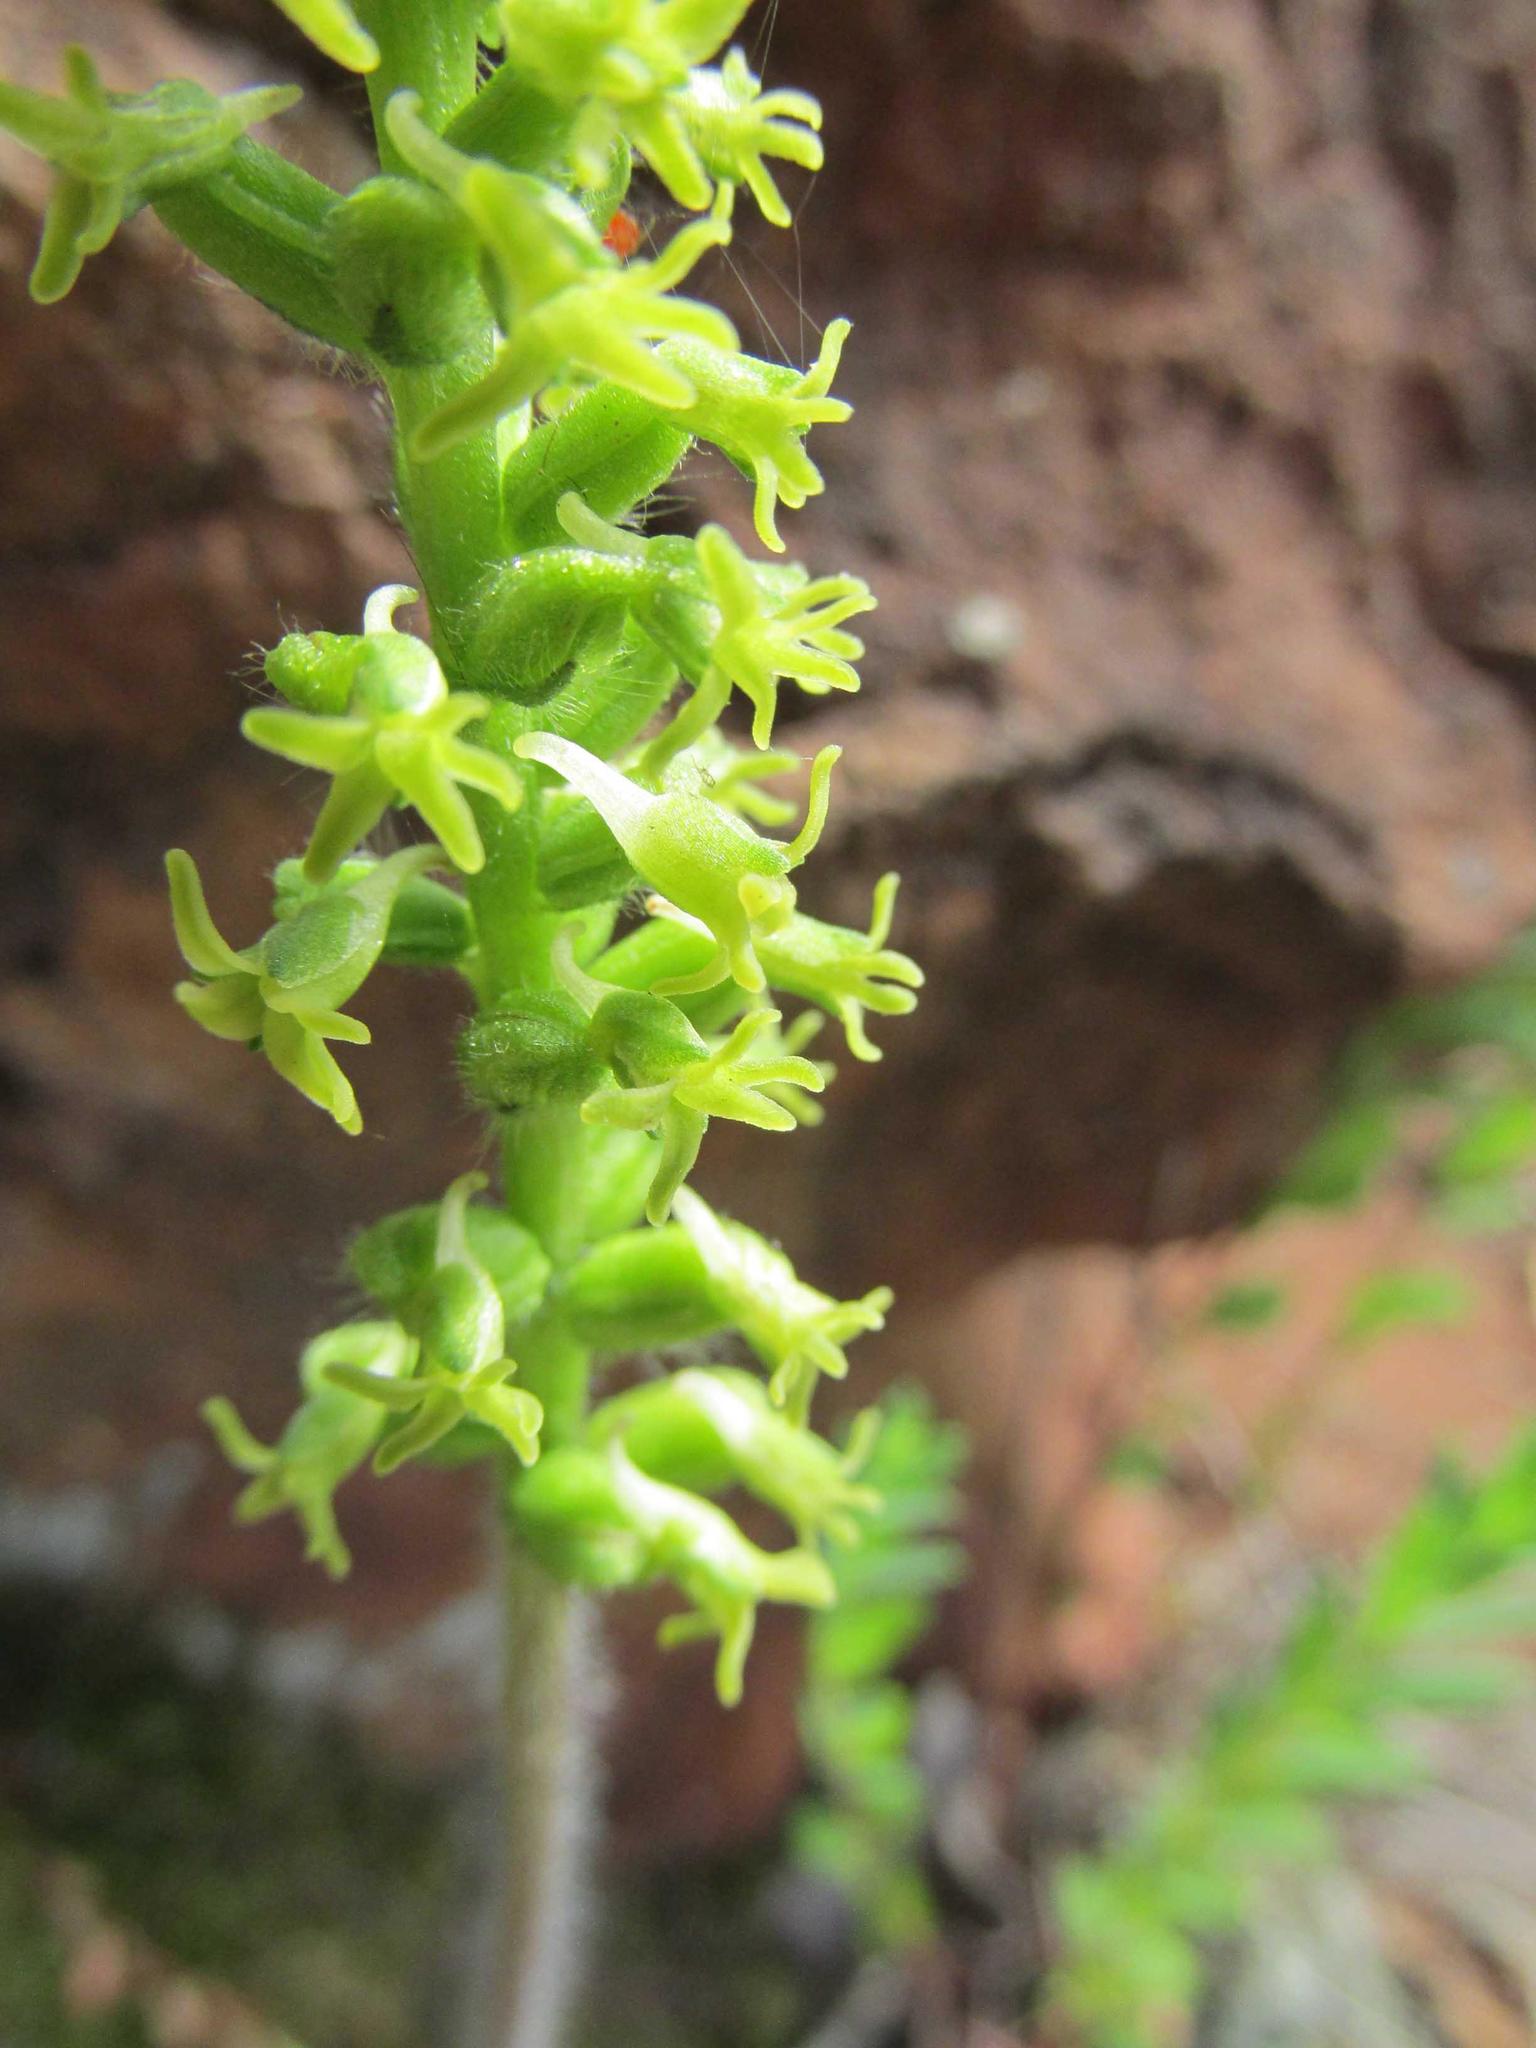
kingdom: Plantae
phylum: Tracheophyta
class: Liliopsida
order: Asparagales
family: Orchidaceae
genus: Holothrix
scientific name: Holothrix condensata
